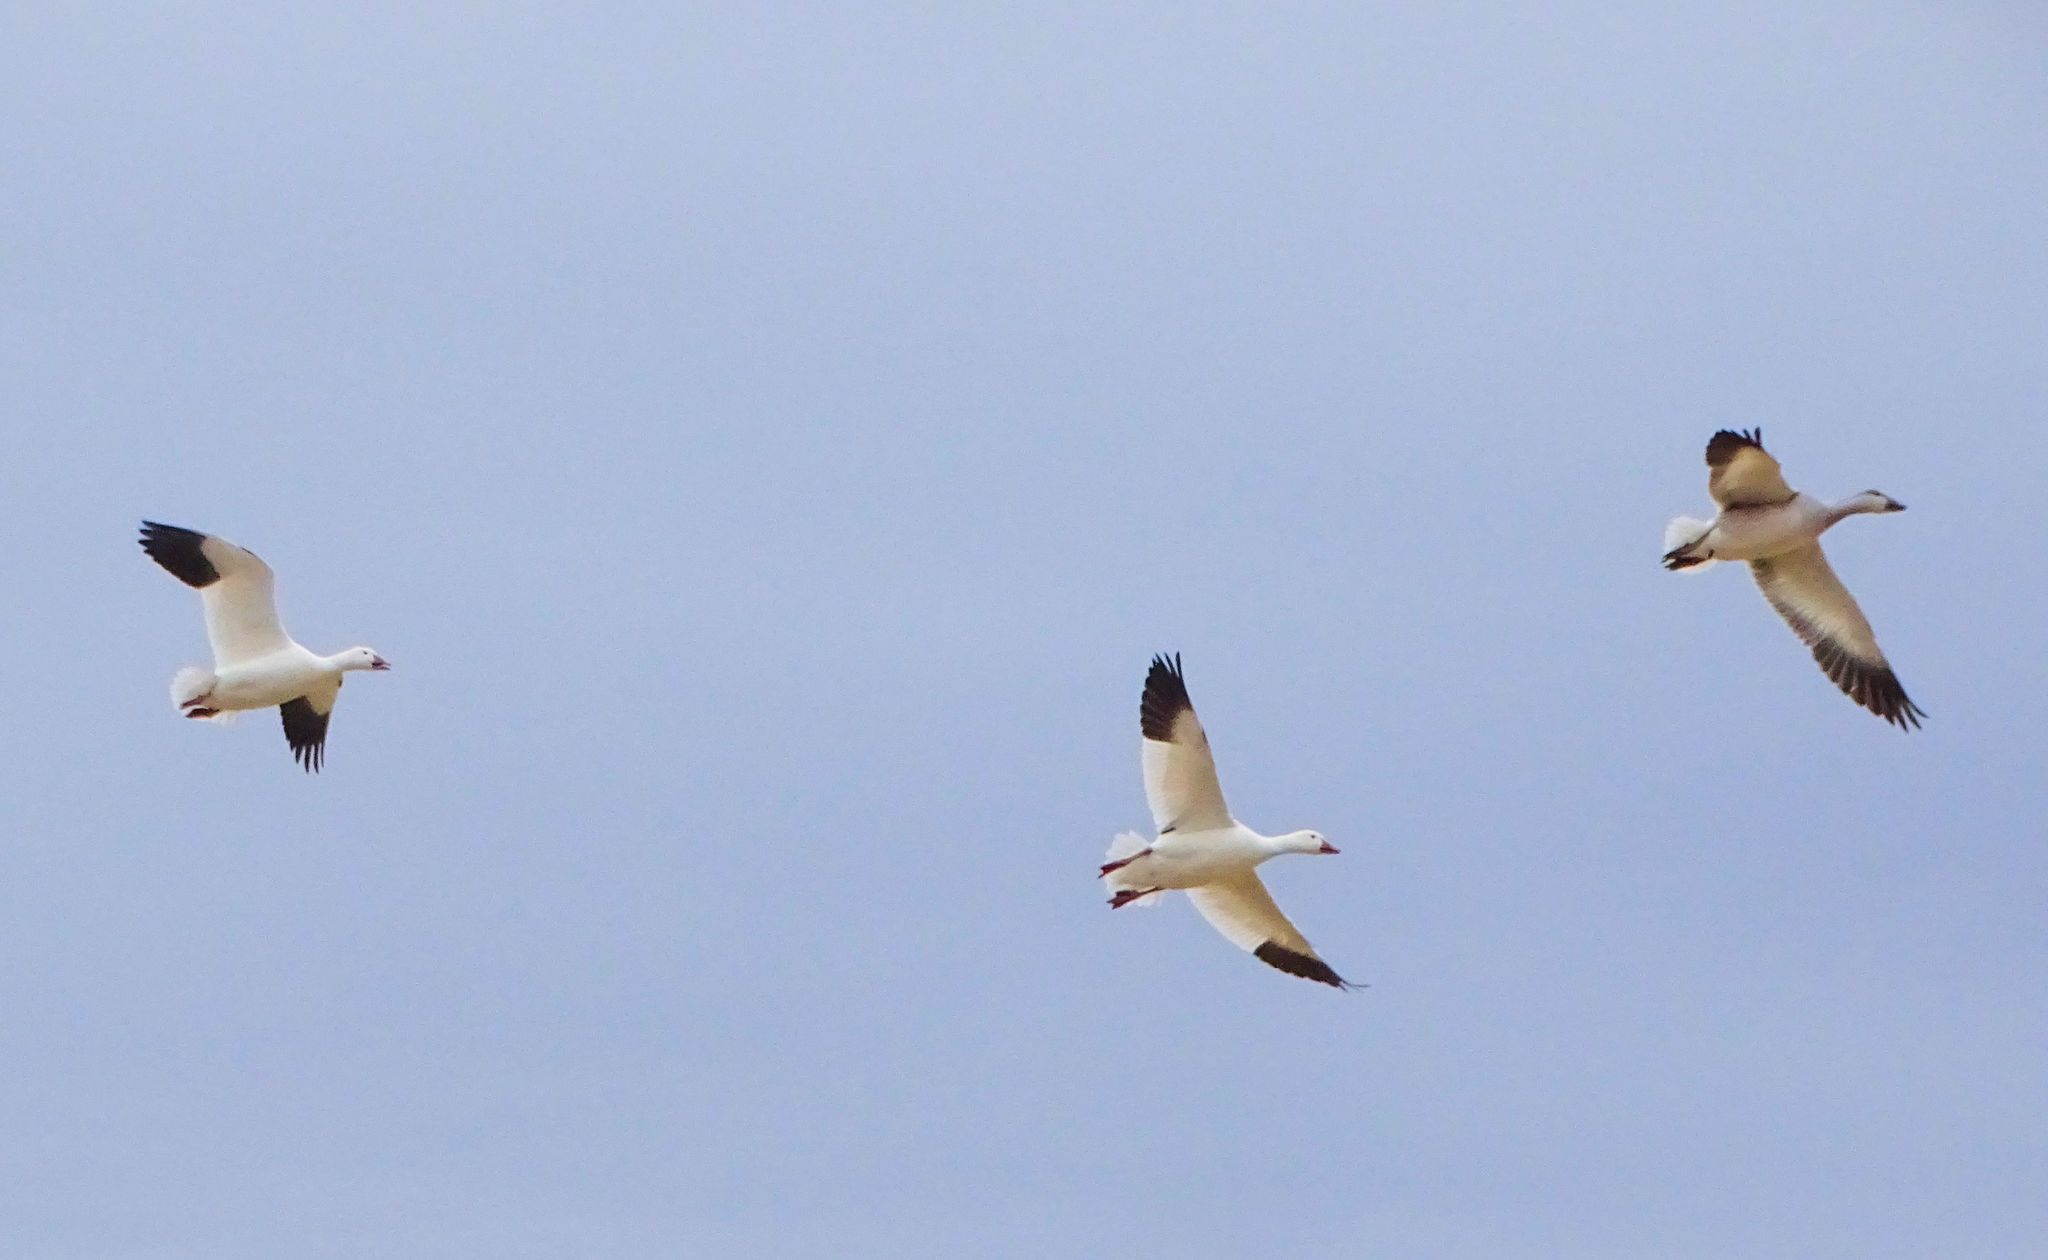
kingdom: Animalia
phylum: Chordata
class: Aves
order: Anseriformes
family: Anatidae
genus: Anser
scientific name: Anser caerulescens
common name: Snow goose
